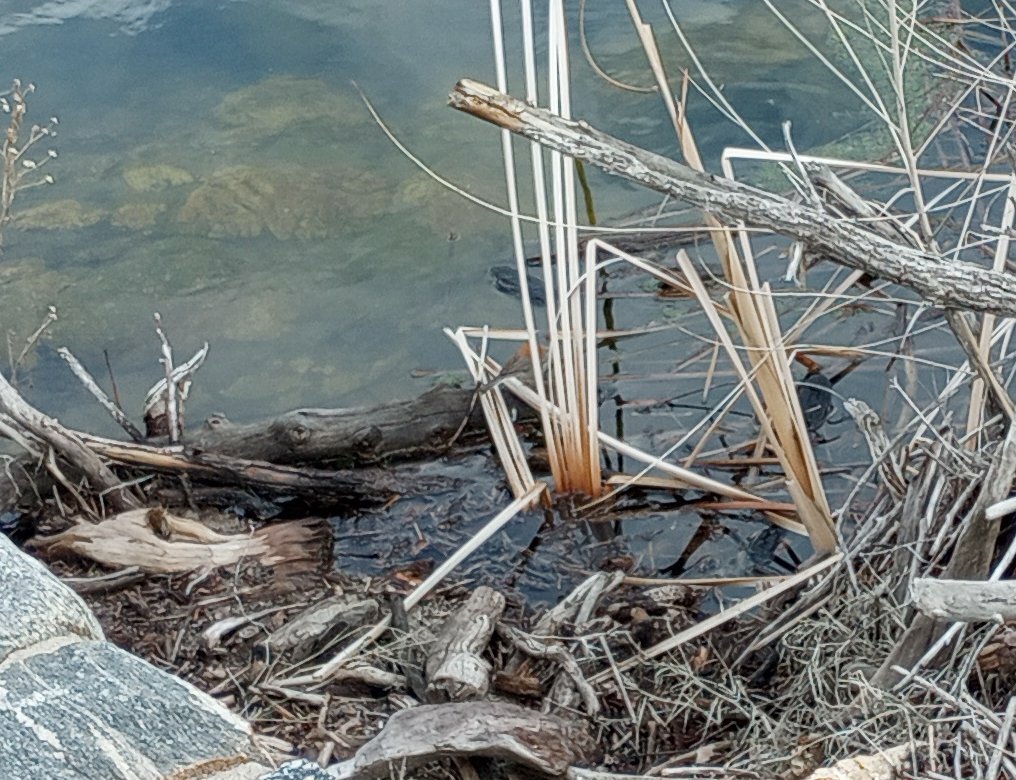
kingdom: Animalia
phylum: Chordata
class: Aves
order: Passeriformes
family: Passerellidae
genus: Junco
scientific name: Junco phaeonotus
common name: Yellow-eyed junco
